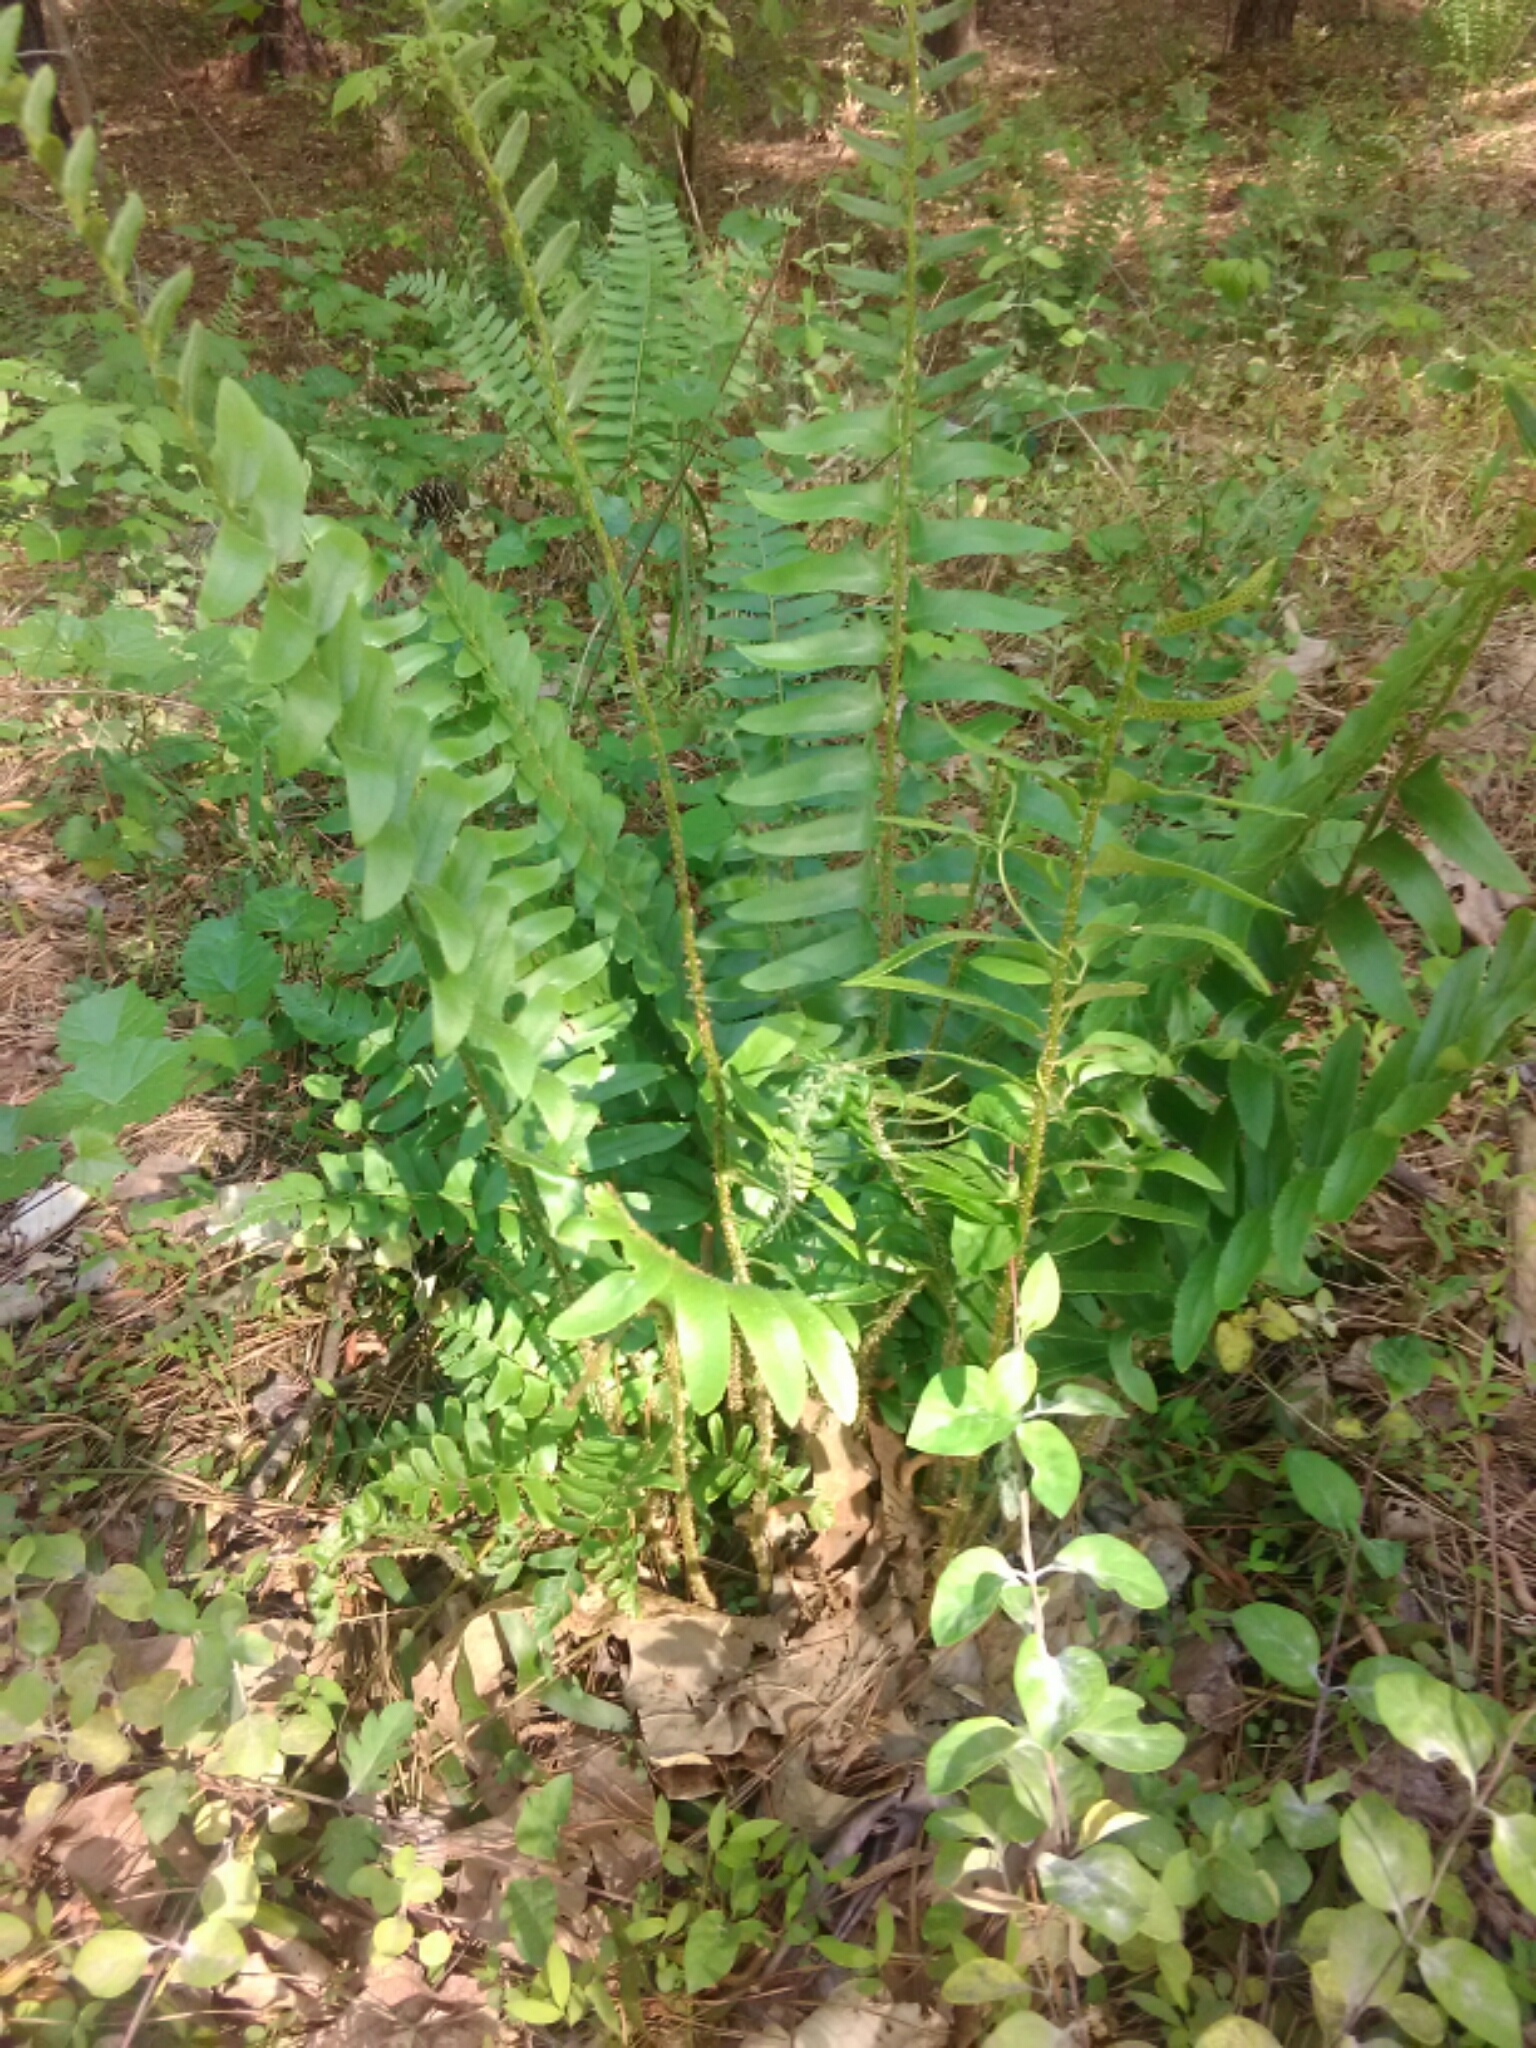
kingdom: Plantae
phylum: Tracheophyta
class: Polypodiopsida
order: Polypodiales
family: Dryopteridaceae
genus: Polystichum
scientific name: Polystichum acrostichoides
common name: Christmas fern
